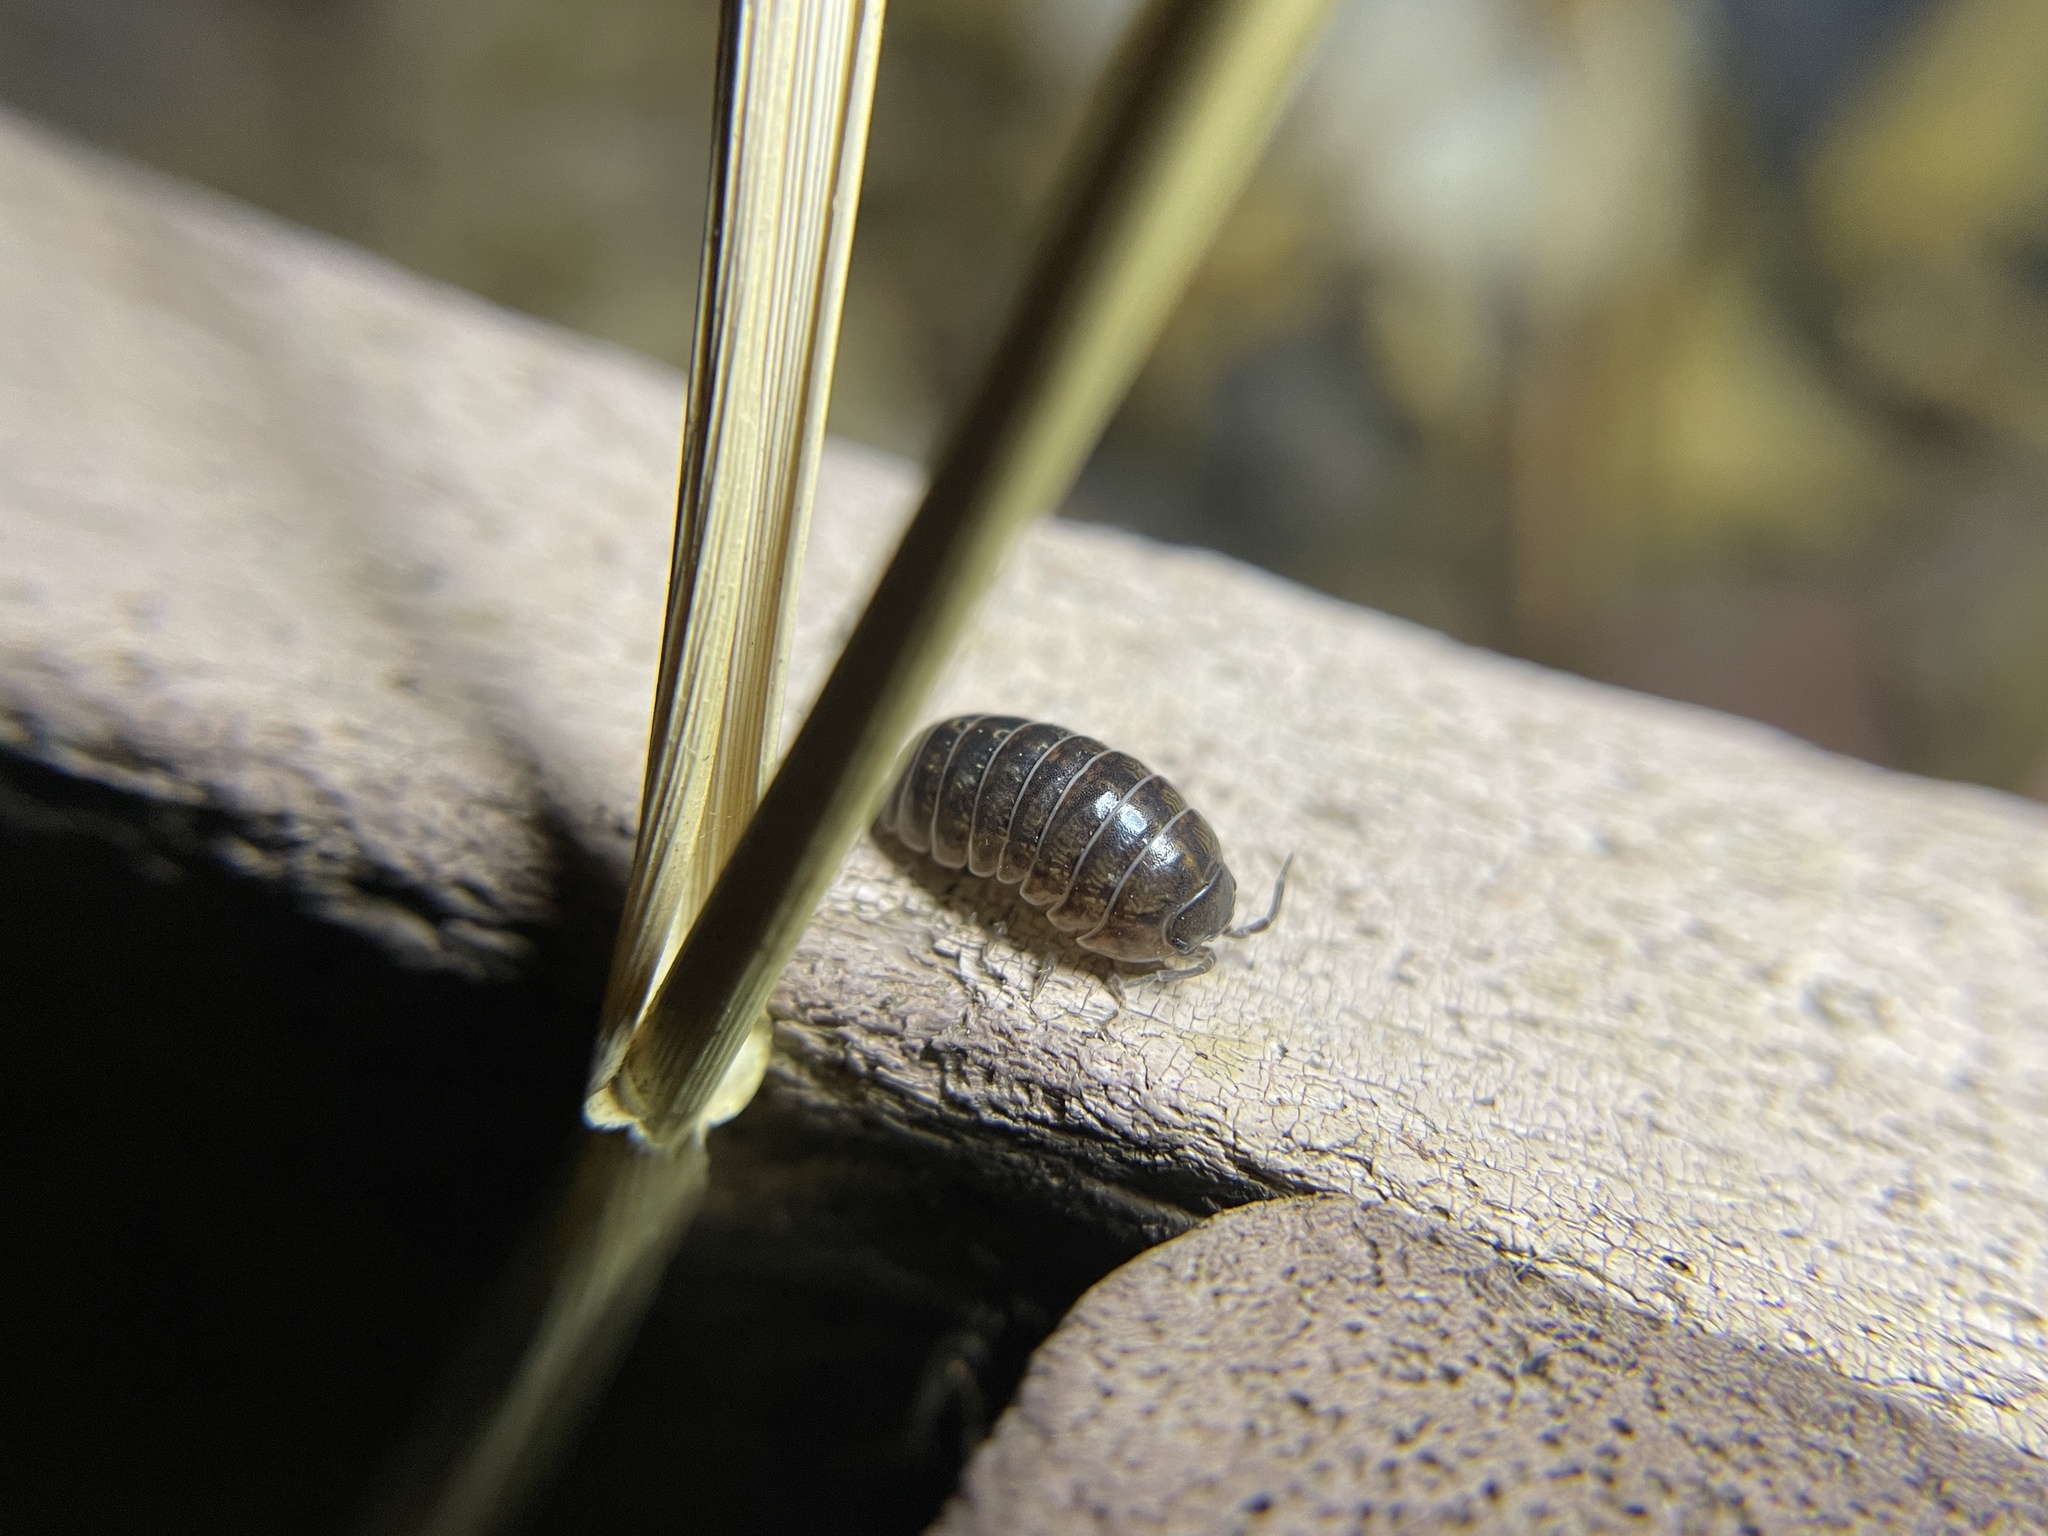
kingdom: Animalia
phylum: Arthropoda
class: Malacostraca
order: Isopoda
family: Armadillidiidae
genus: Armadillidium
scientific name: Armadillidium vulgare
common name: Common pill woodlouse
